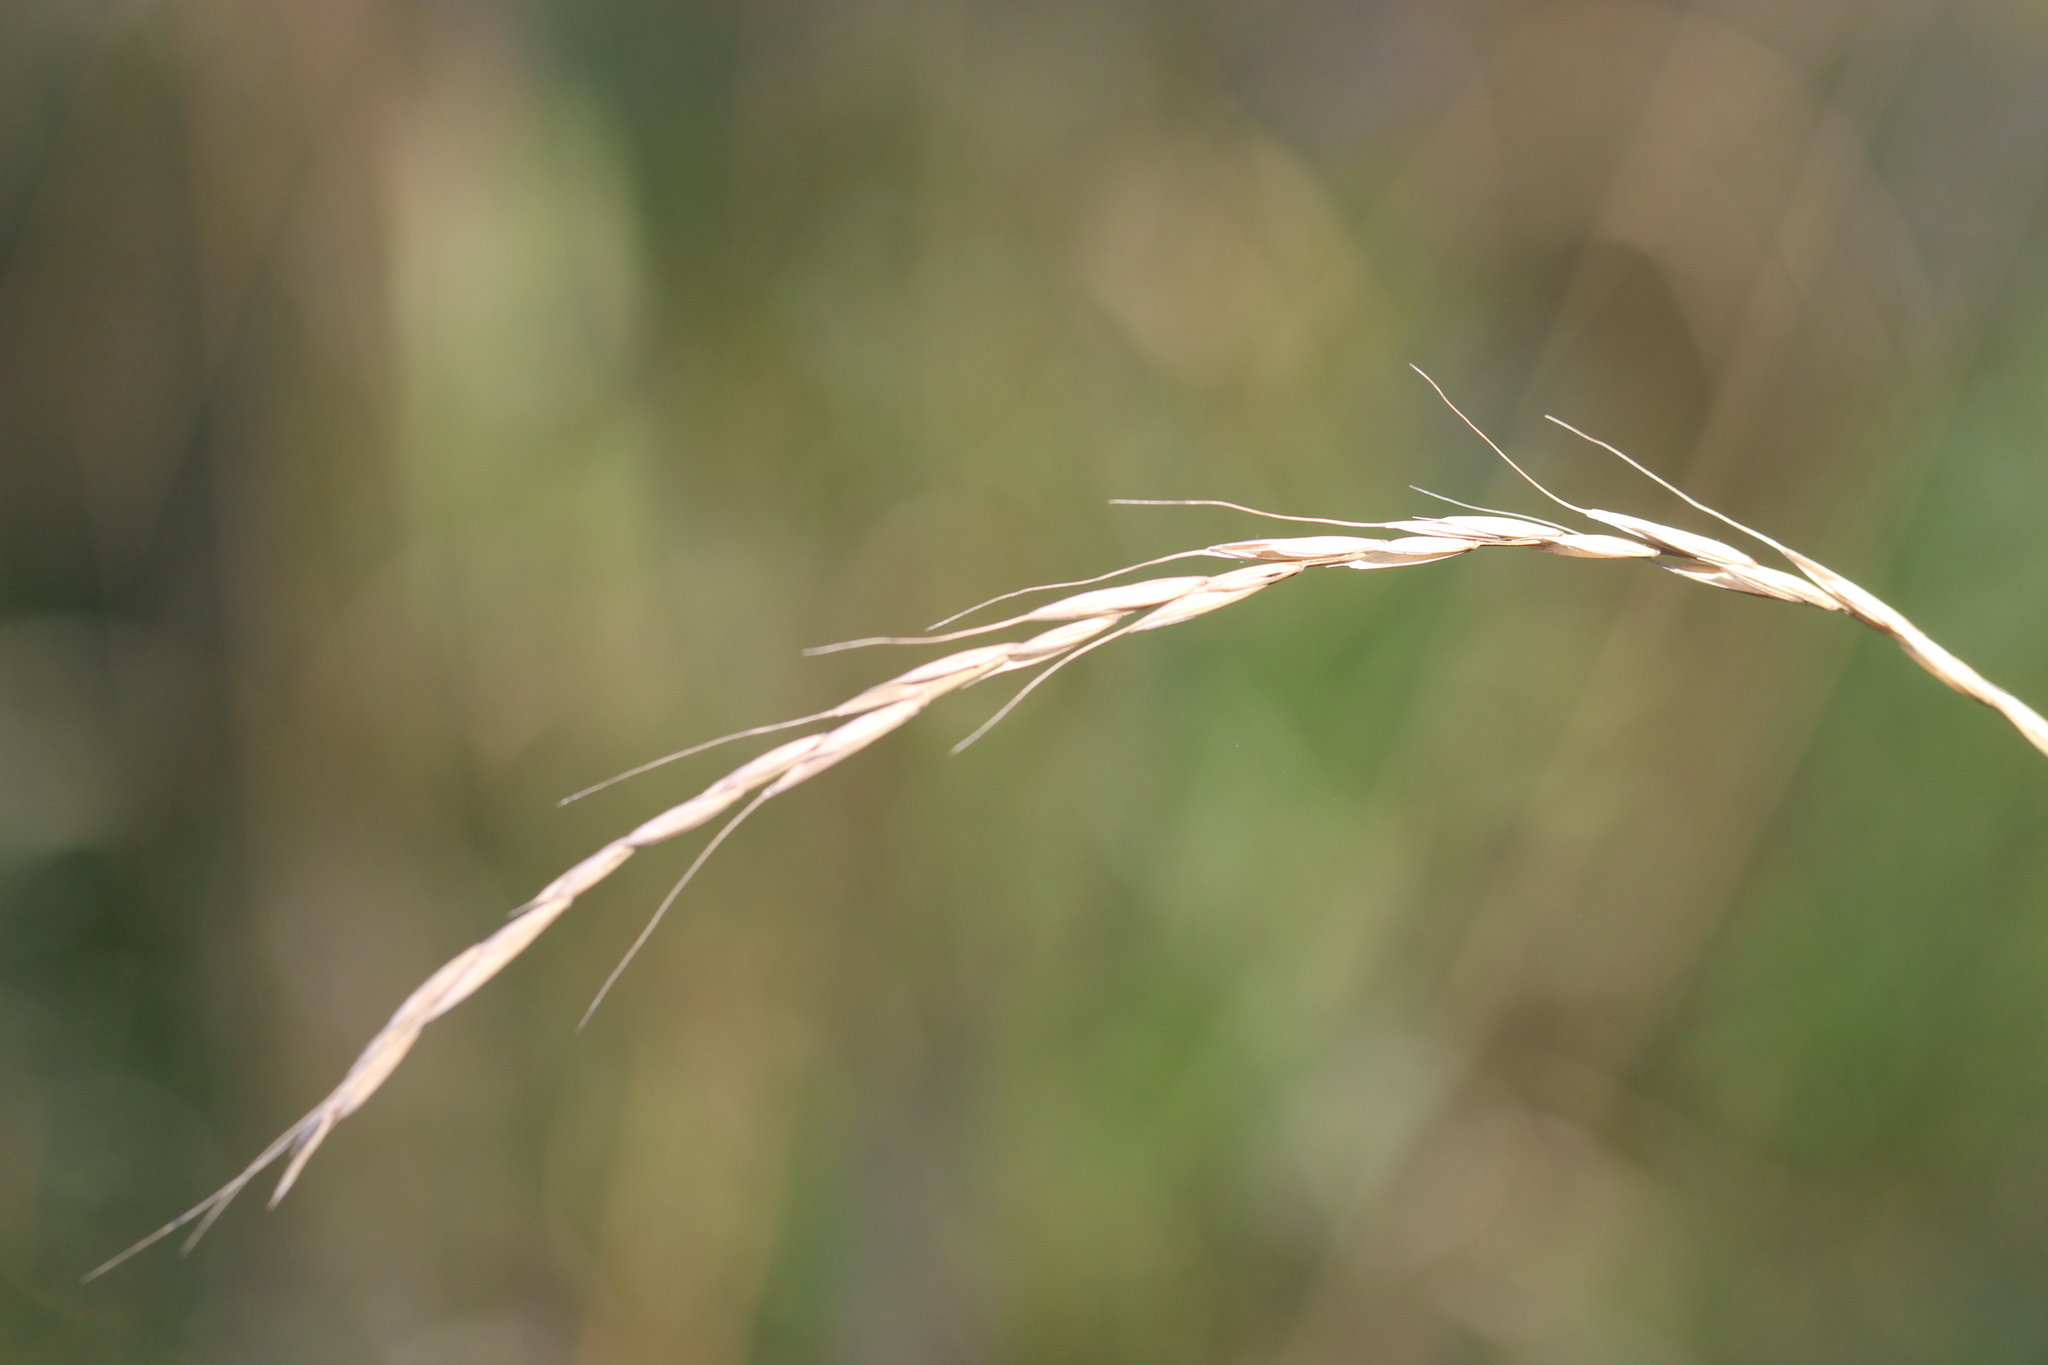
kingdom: Plantae
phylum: Tracheophyta
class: Liliopsida
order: Poales
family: Poaceae
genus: Elymus
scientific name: Elymus caninus
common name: Bearded couch
